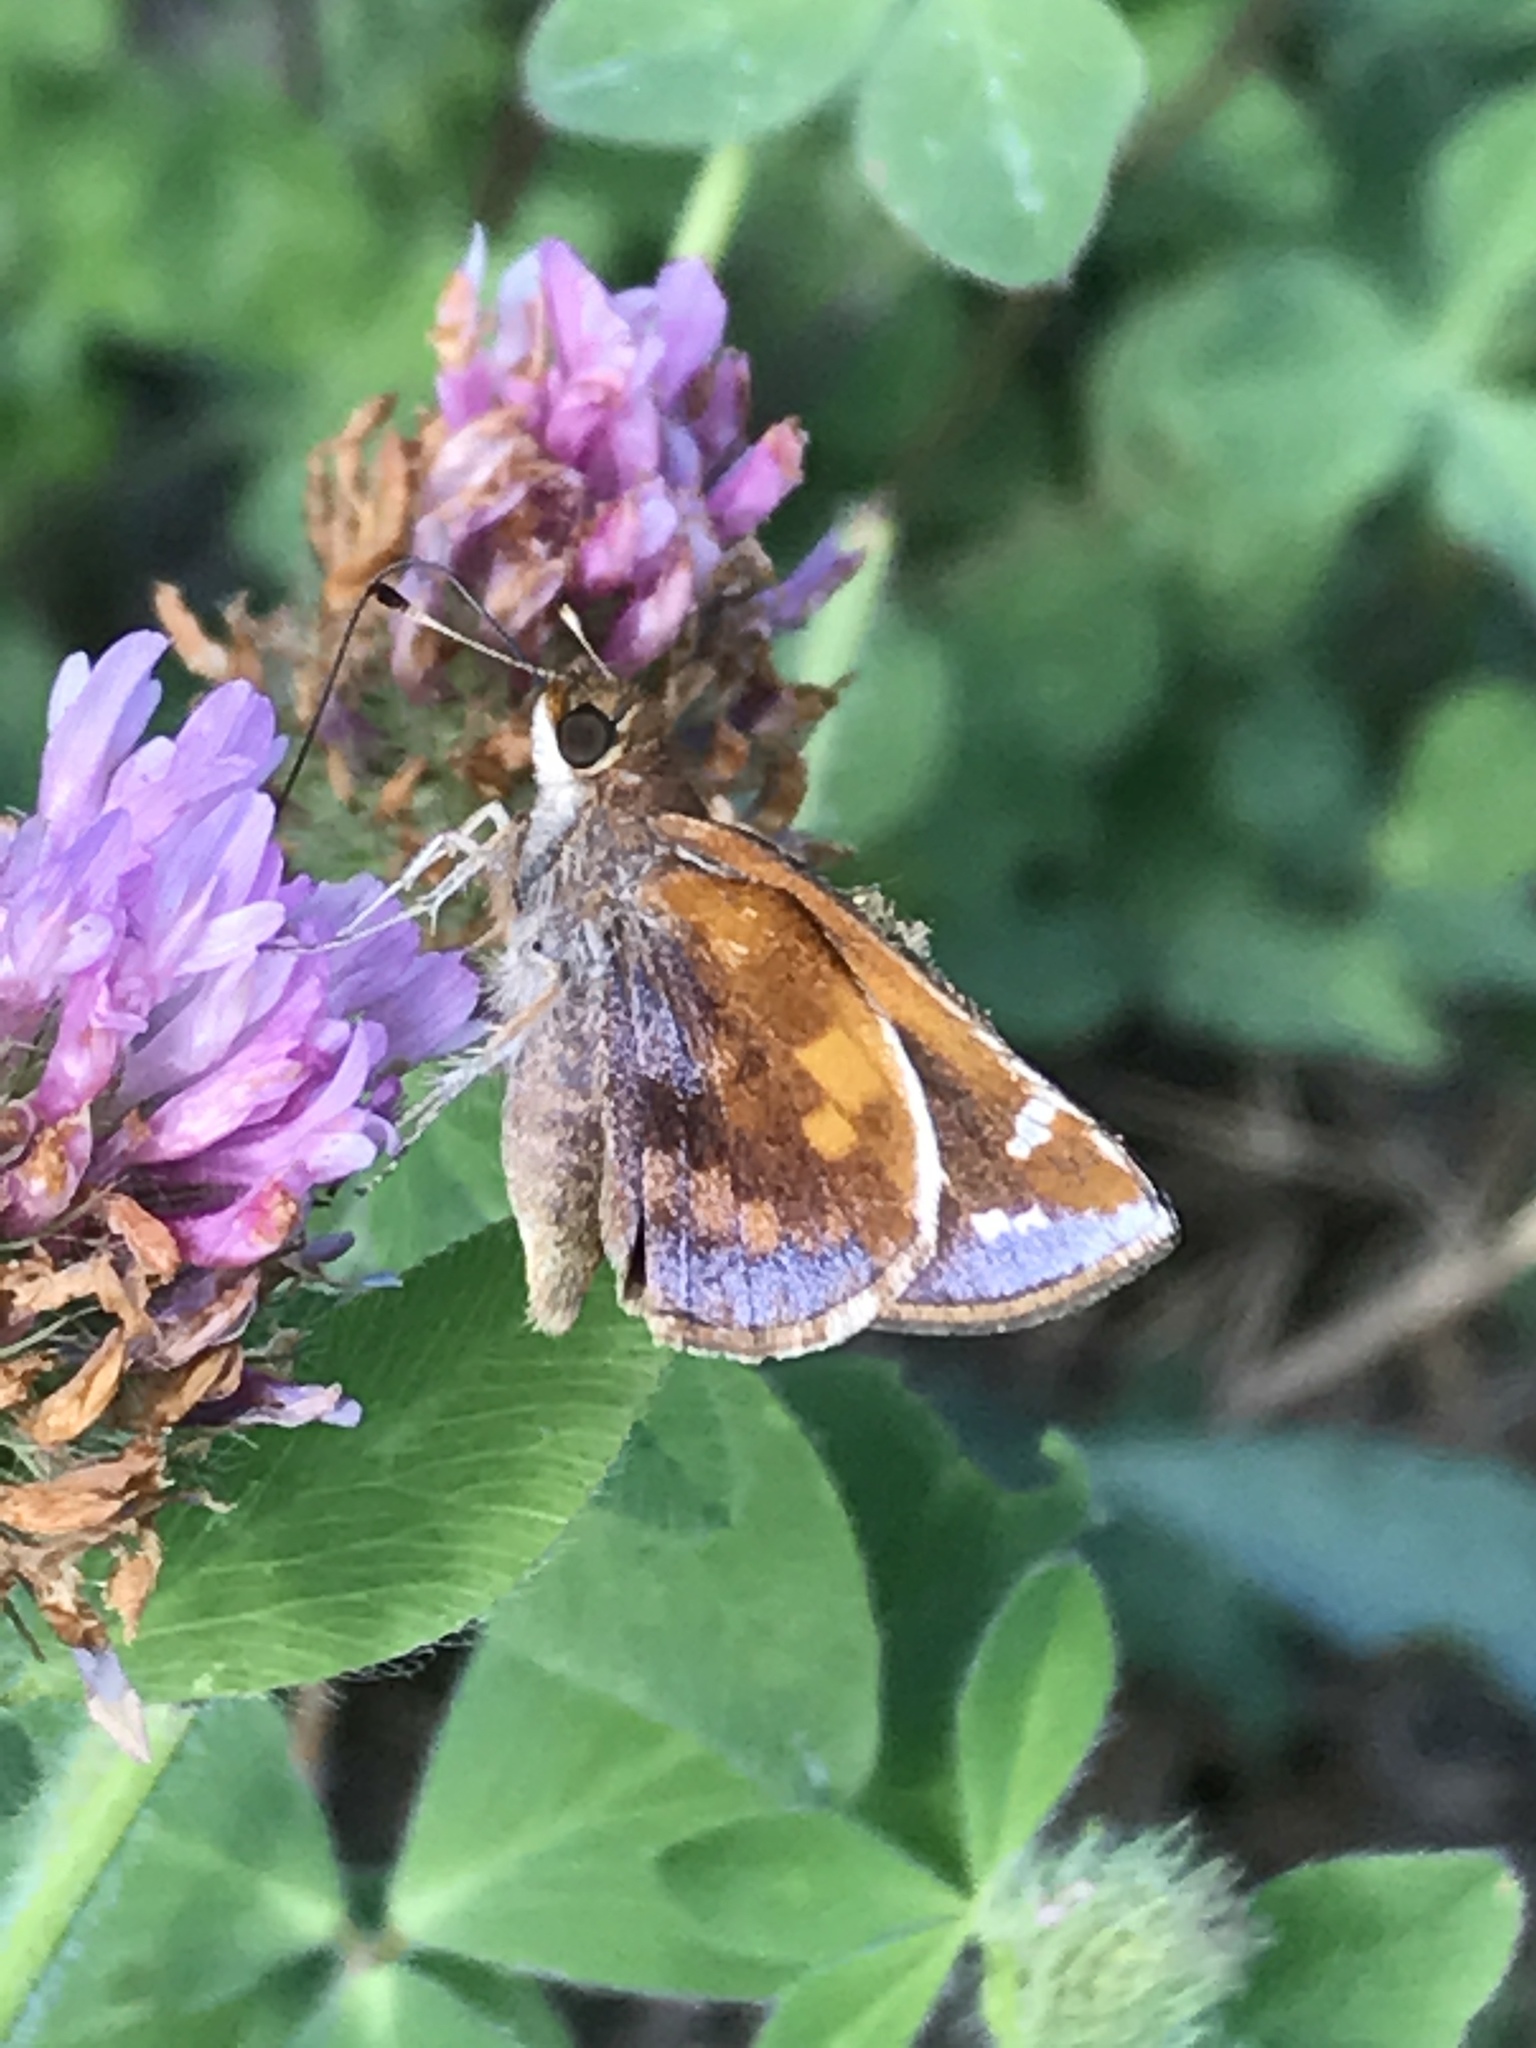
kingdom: Animalia
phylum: Arthropoda
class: Insecta
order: Lepidoptera
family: Hesperiidae
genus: Lon
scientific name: Lon zabulon
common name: Zabulon skipper
